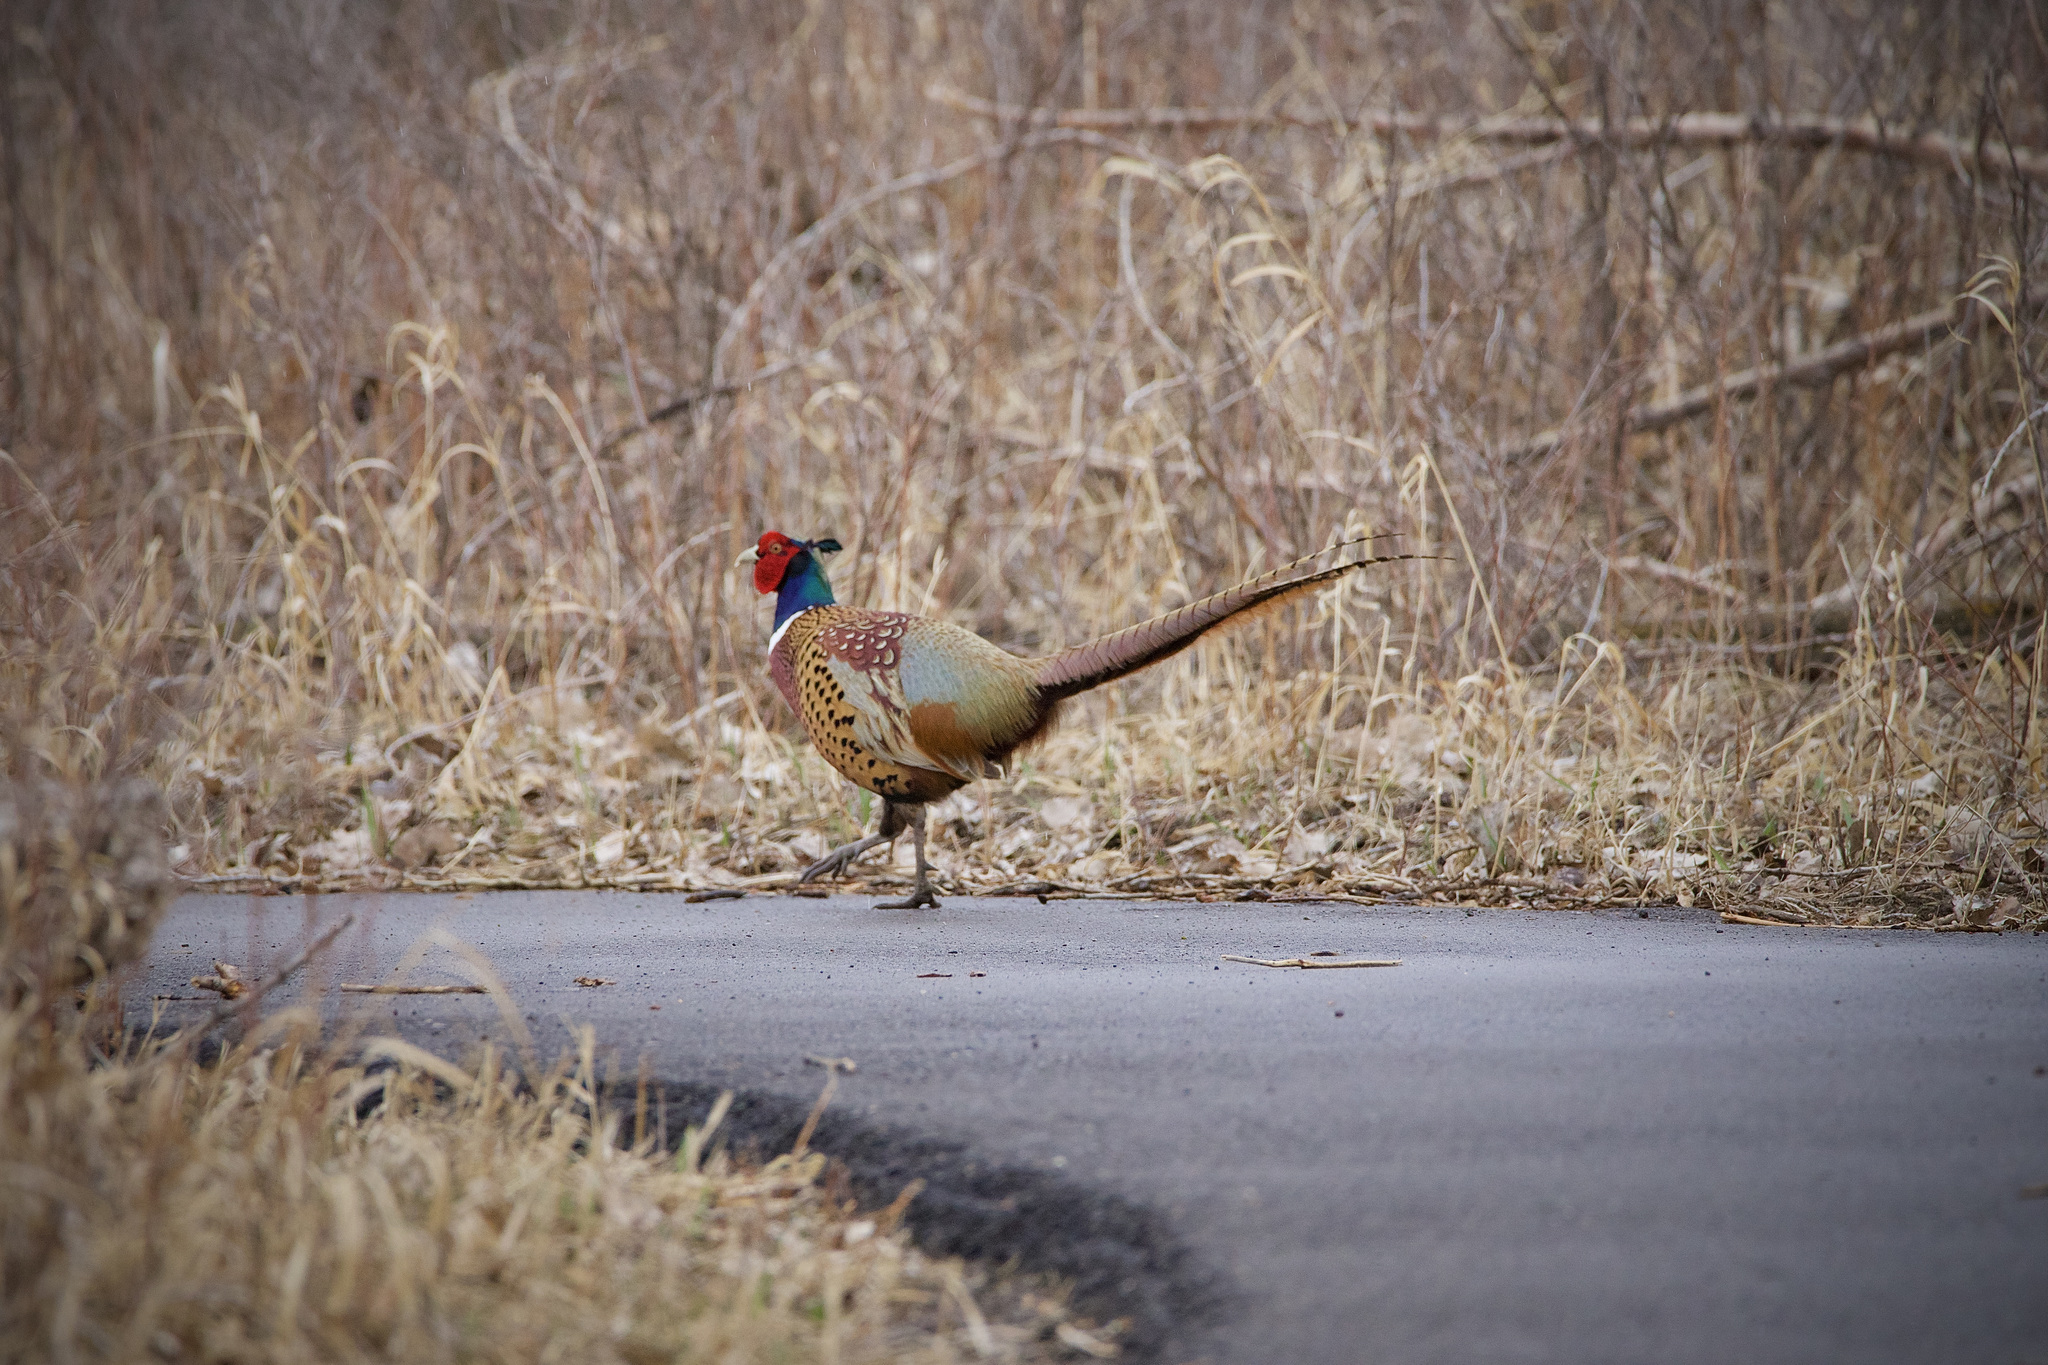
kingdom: Animalia
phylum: Chordata
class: Aves
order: Galliformes
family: Phasianidae
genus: Phasianus
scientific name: Phasianus colchicus
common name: Common pheasant
